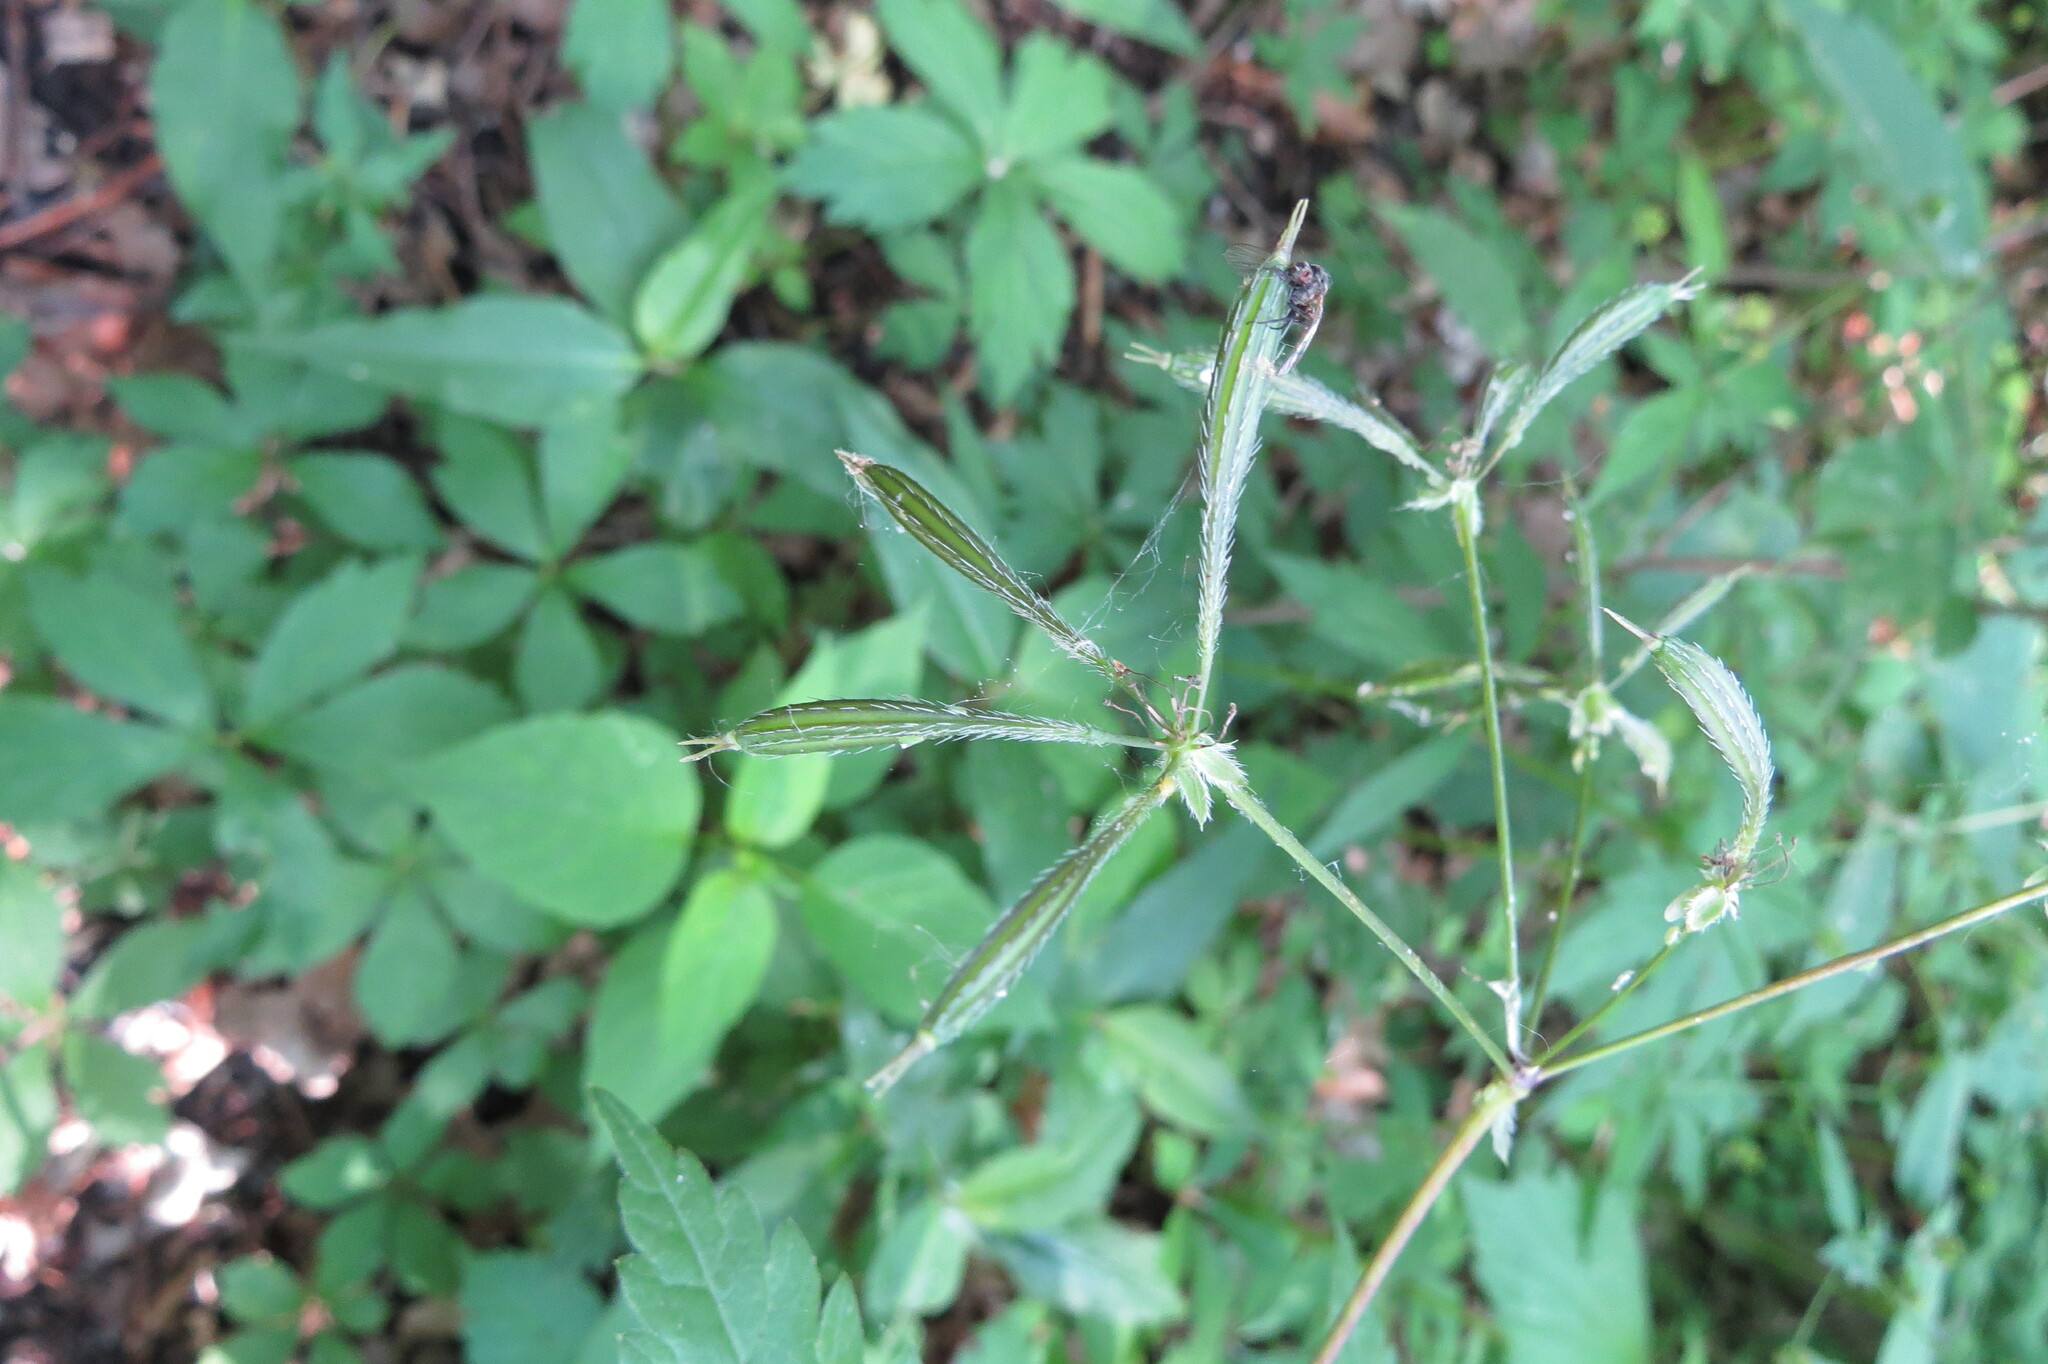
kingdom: Plantae
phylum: Tracheophyta
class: Magnoliopsida
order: Apiales
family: Apiaceae
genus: Osmorhiza
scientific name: Osmorhiza longistylis
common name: Smooth sweet cicely
